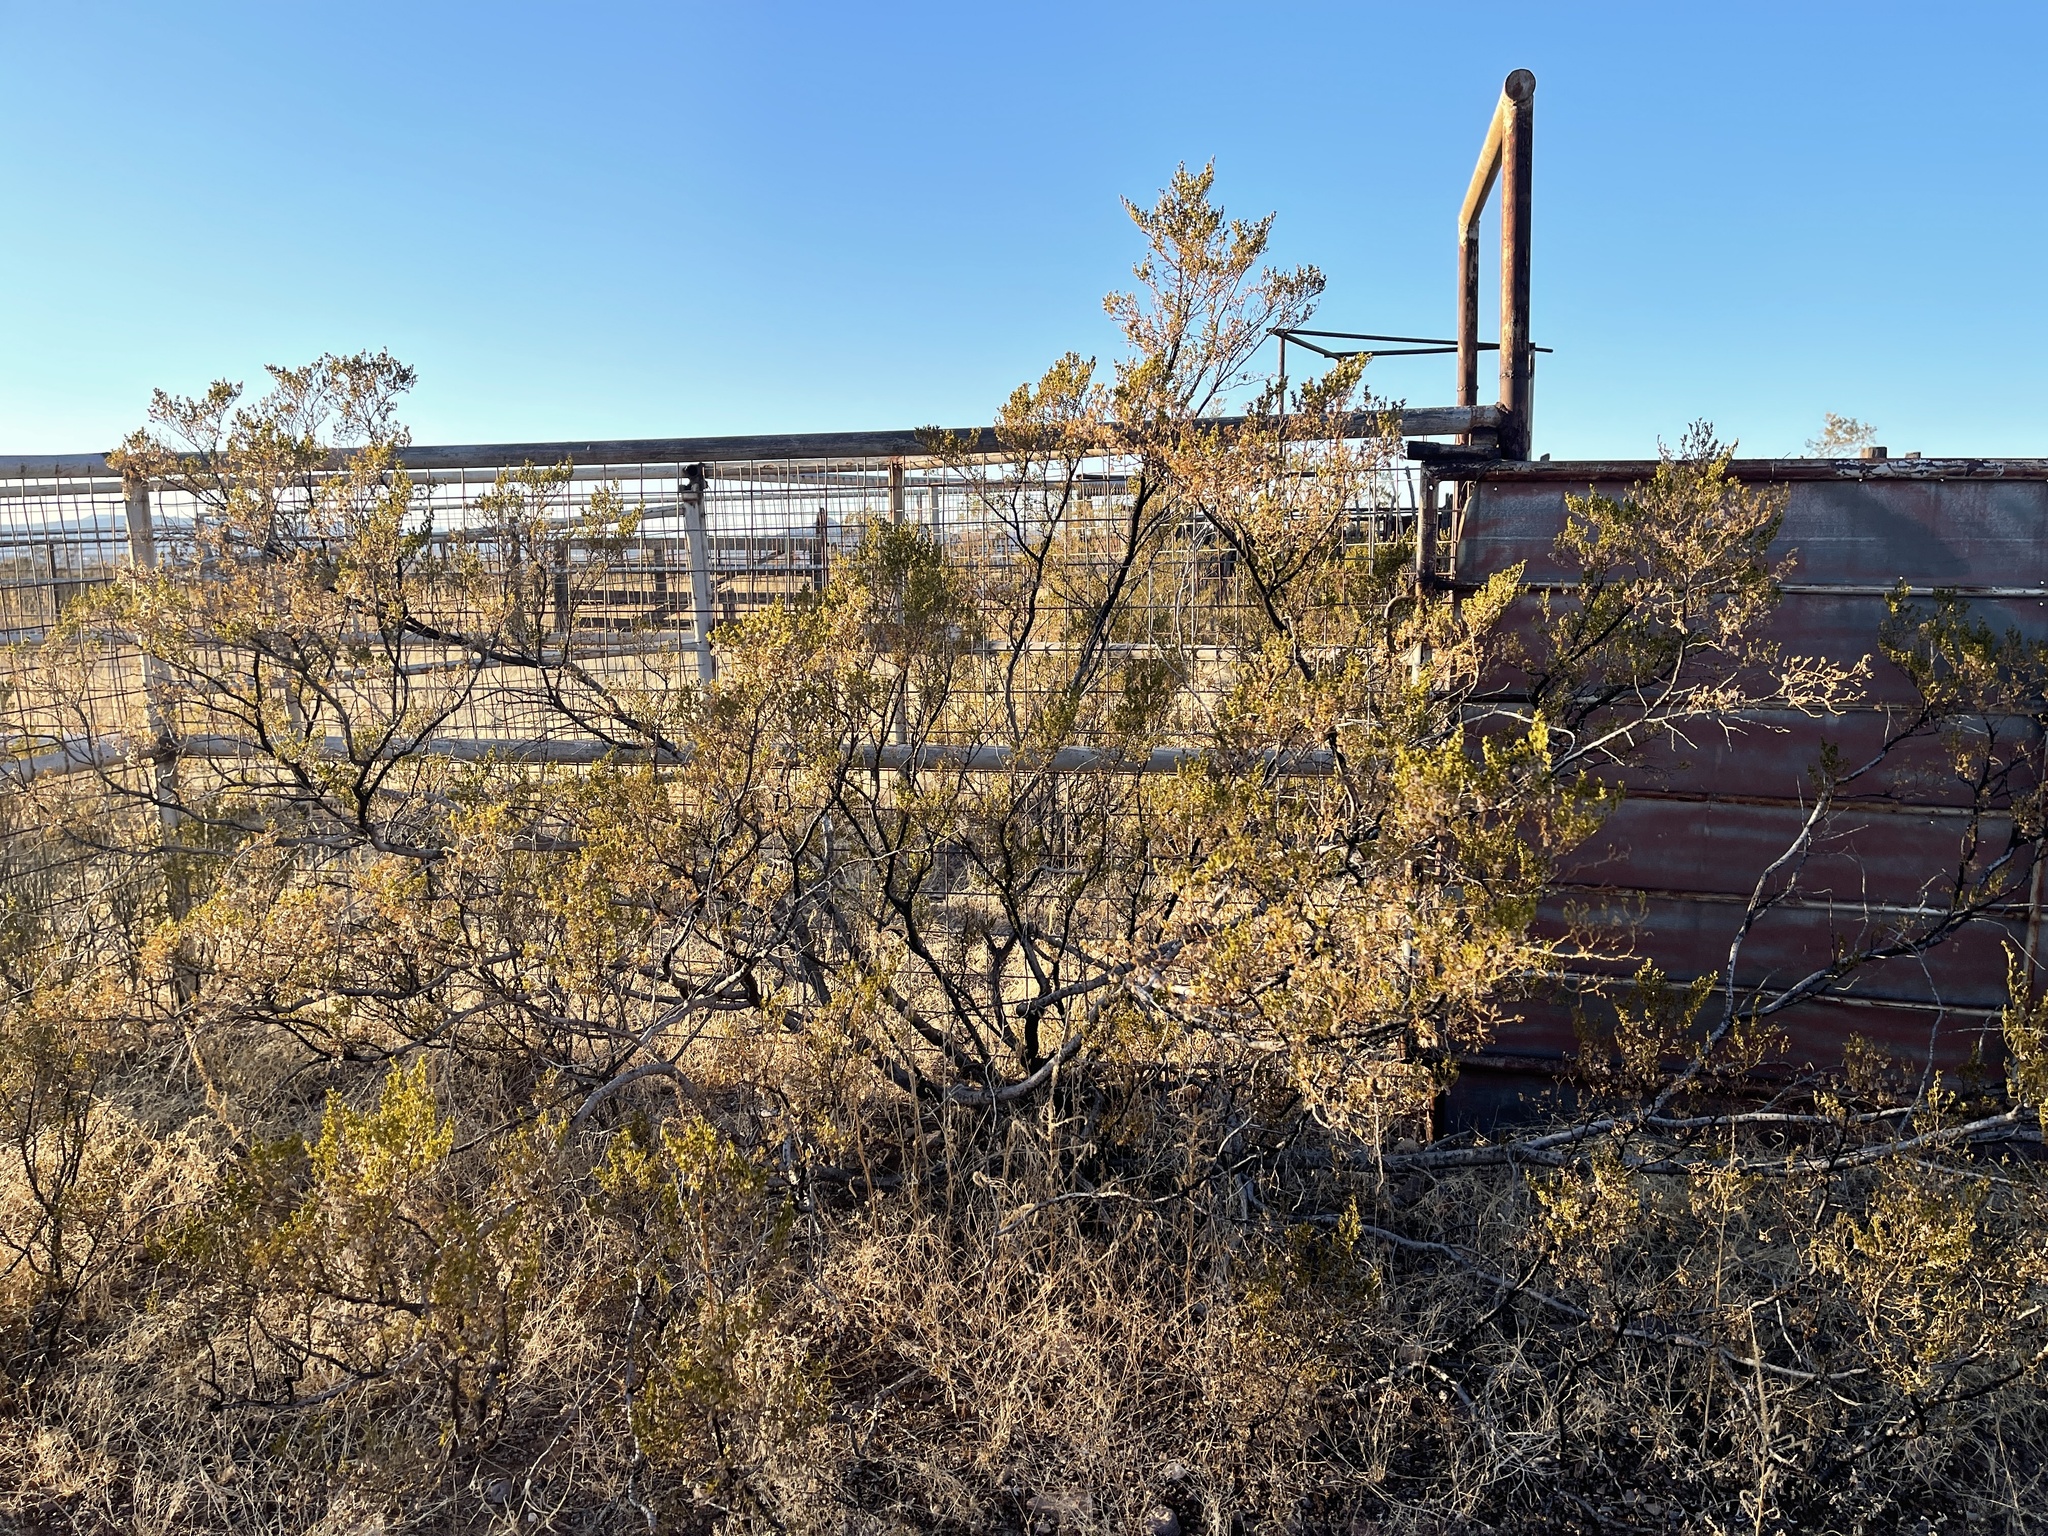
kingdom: Plantae
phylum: Tracheophyta
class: Magnoliopsida
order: Zygophyllales
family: Zygophyllaceae
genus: Larrea
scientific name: Larrea tridentata
